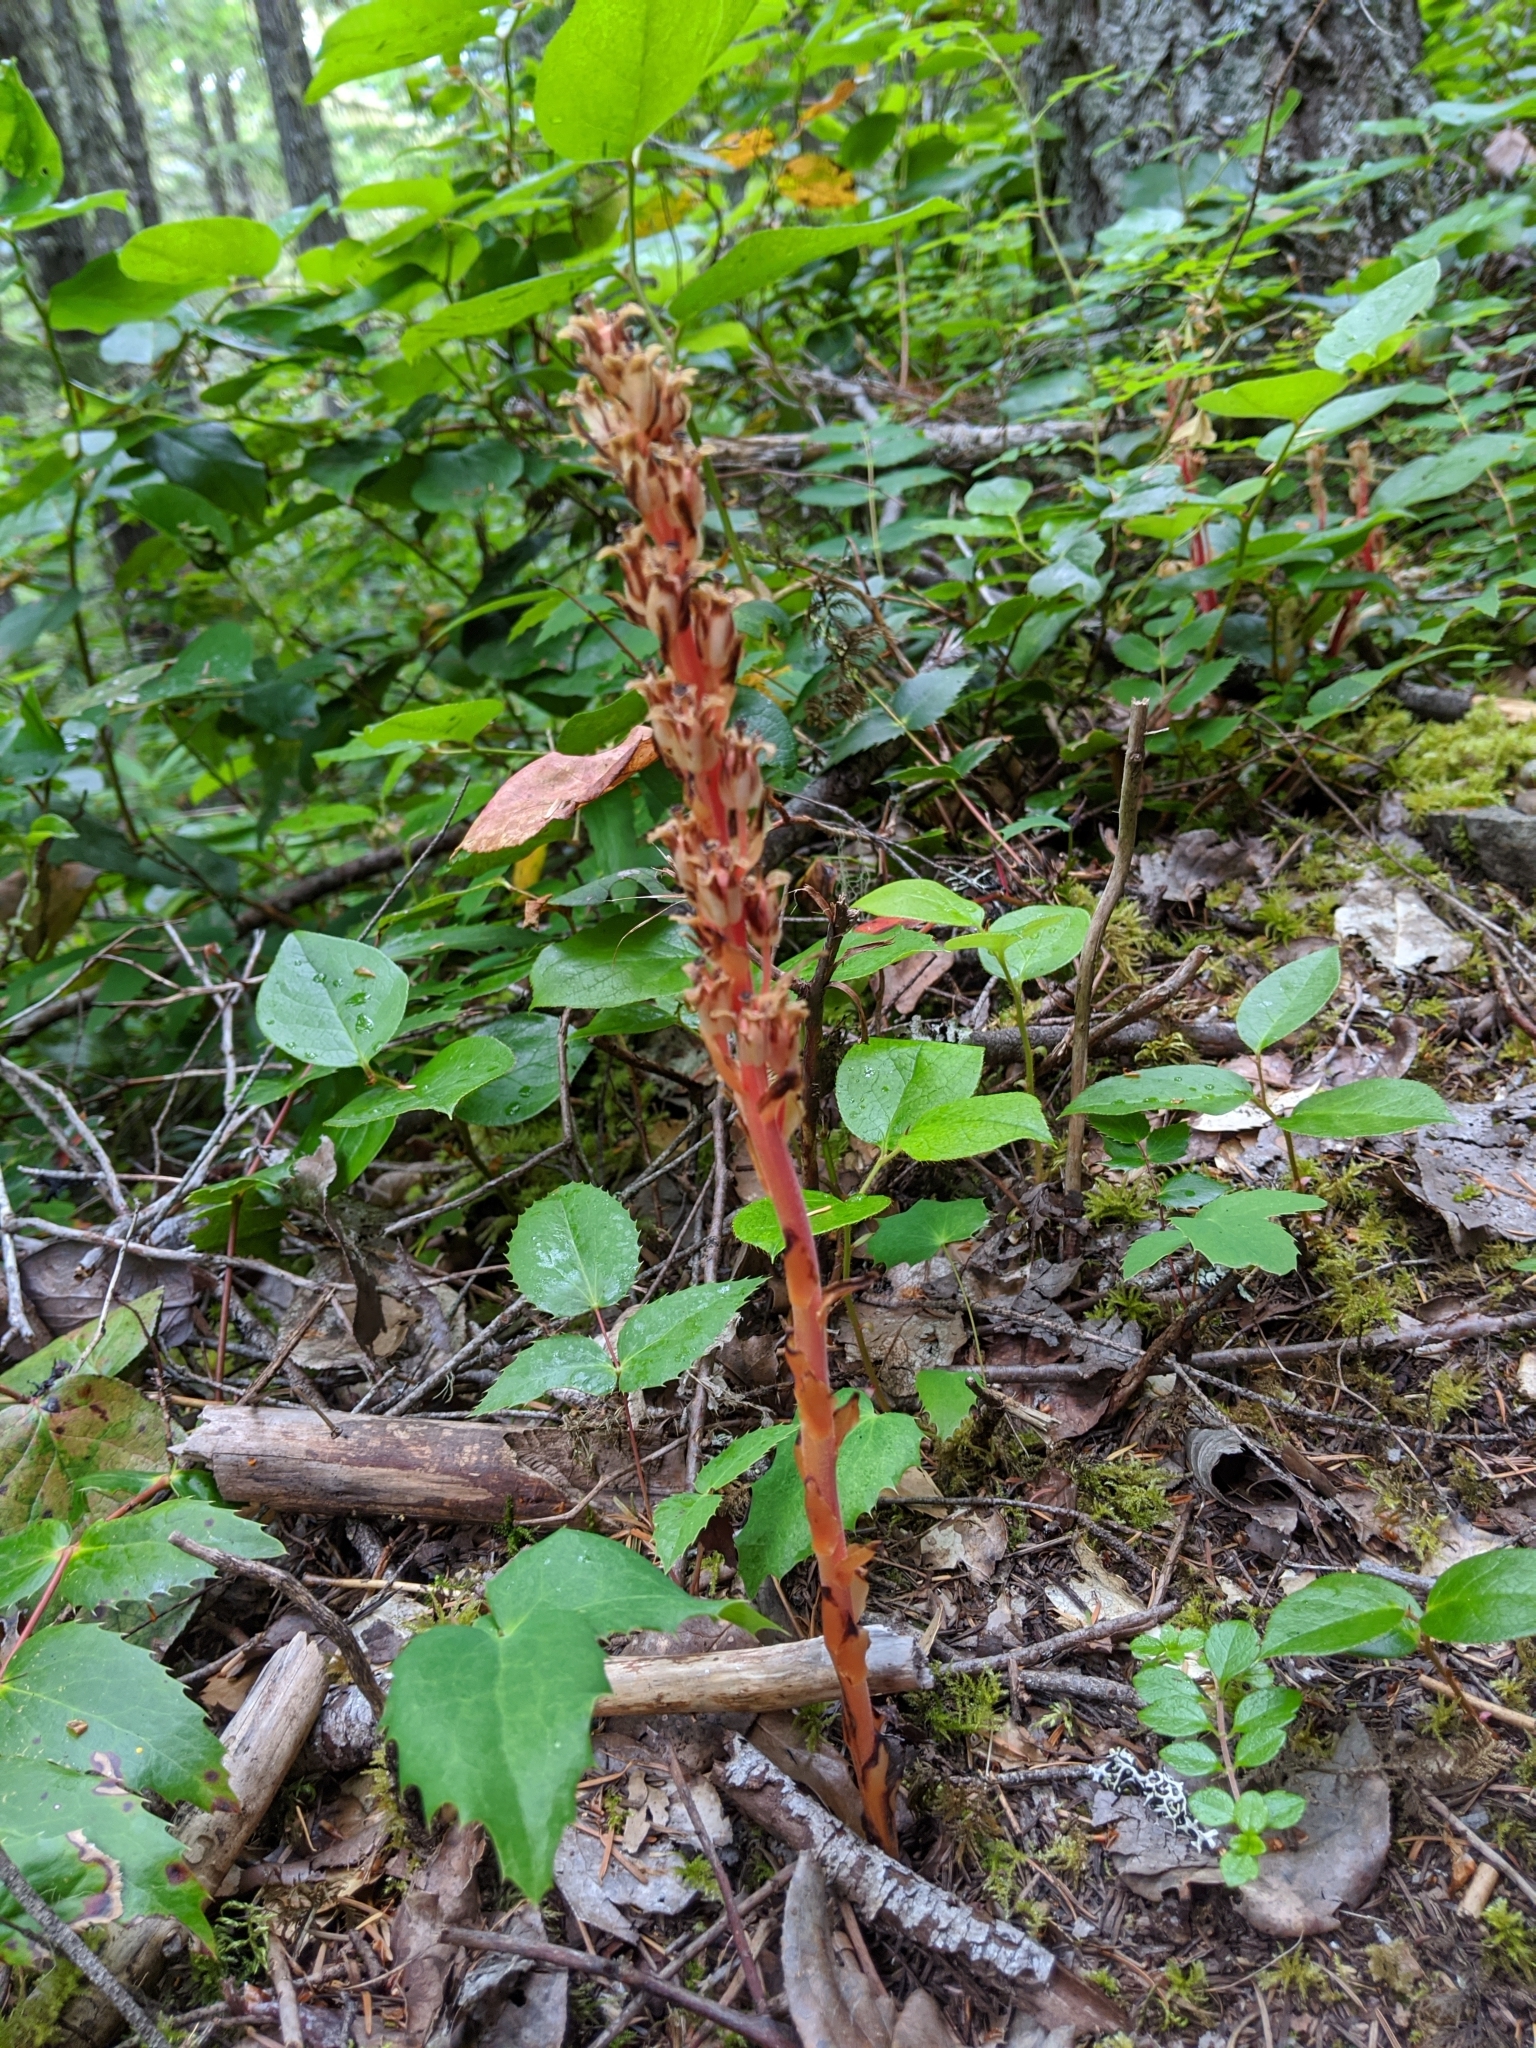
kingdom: Plantae
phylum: Tracheophyta
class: Magnoliopsida
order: Ericales
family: Ericaceae
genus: Hypopitys
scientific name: Hypopitys monotropa
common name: Yellow bird's-nest
